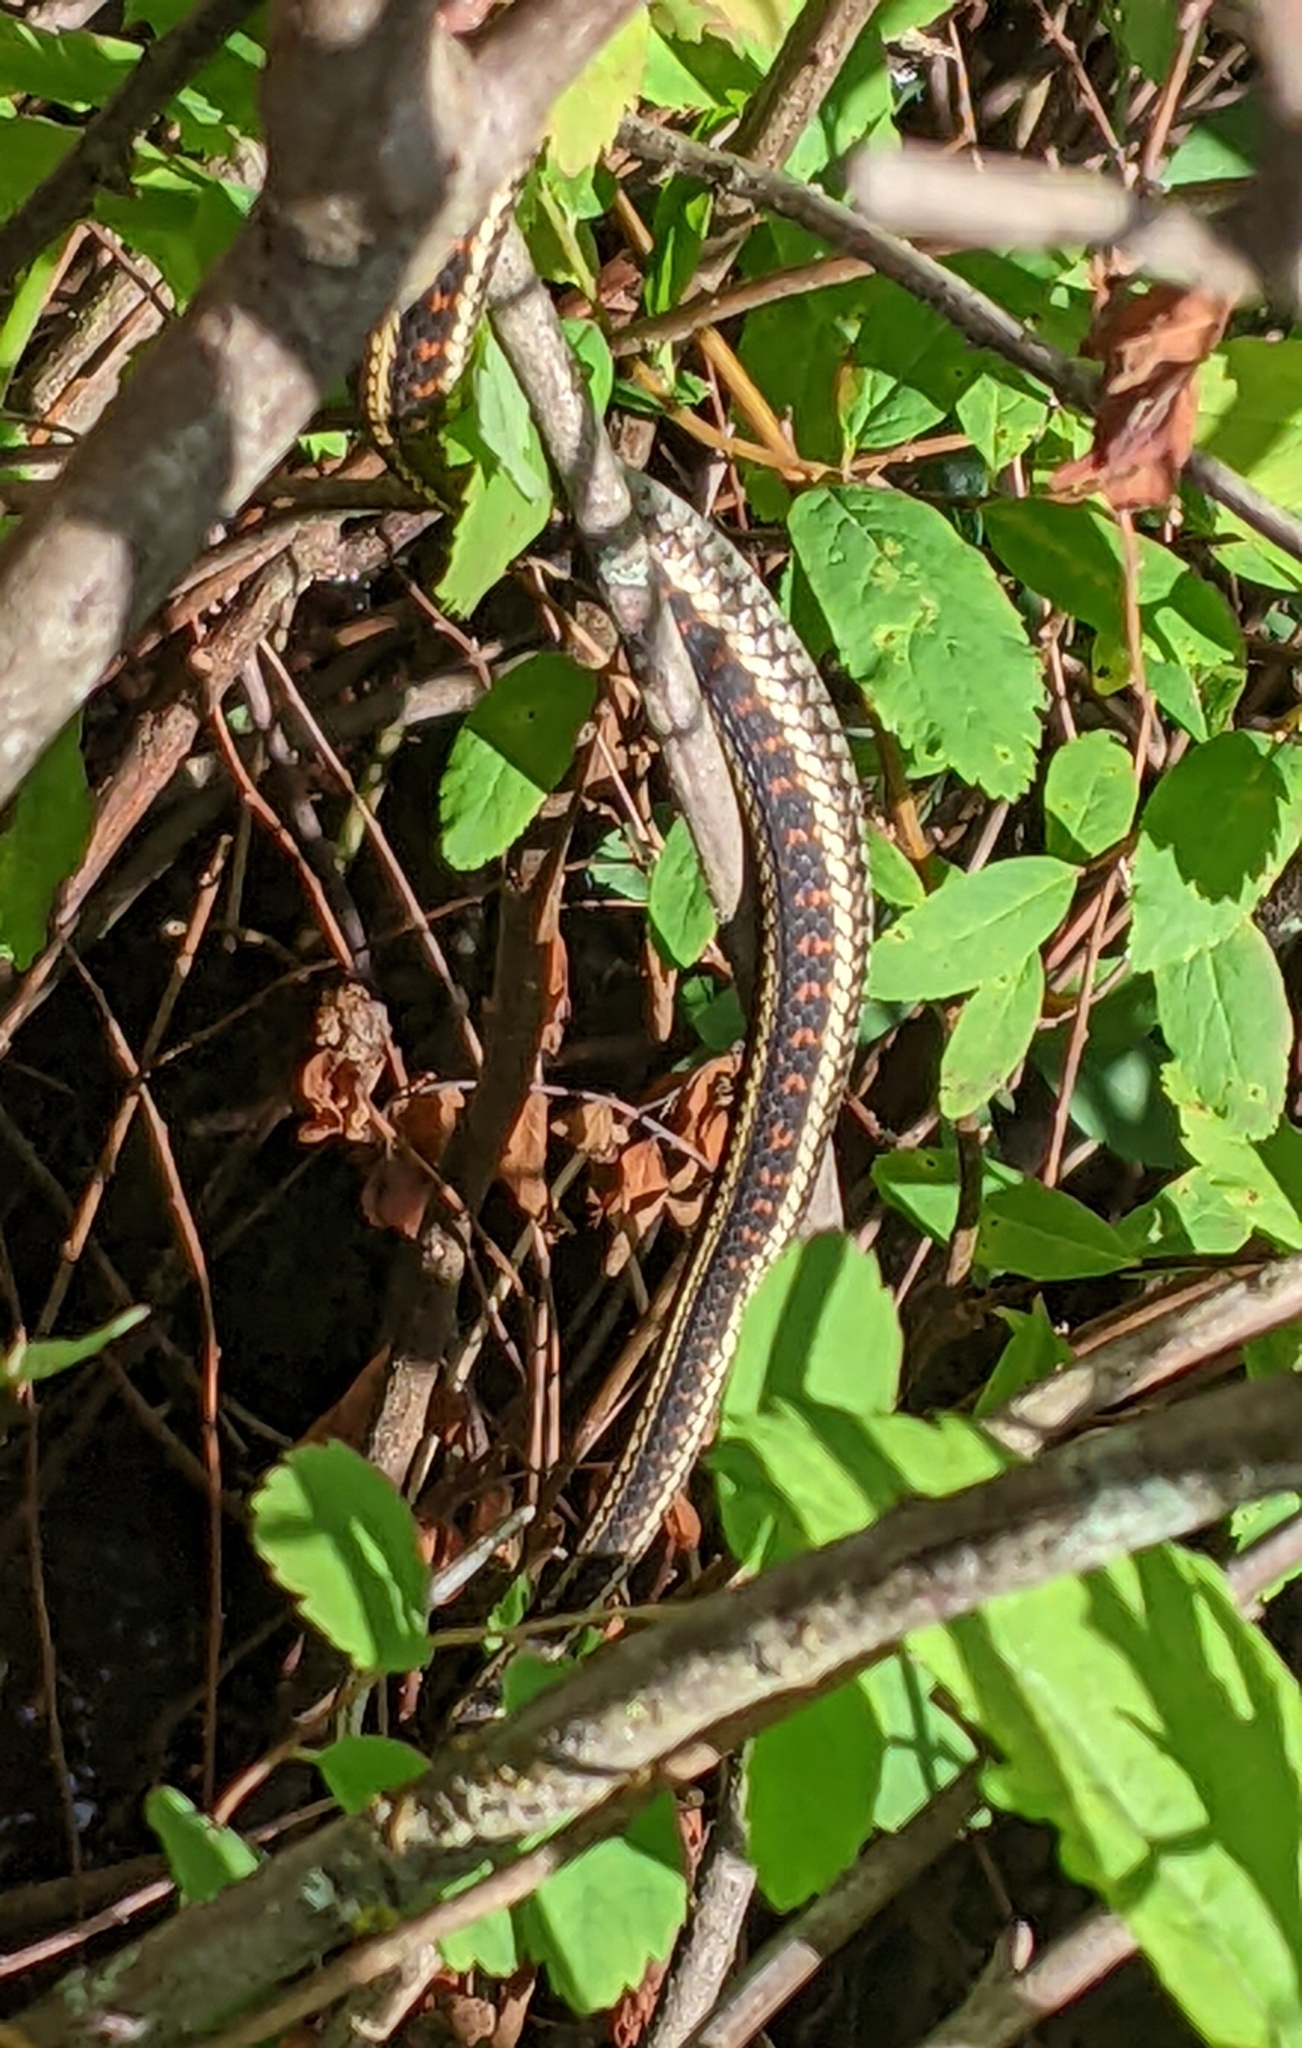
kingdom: Animalia
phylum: Chordata
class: Squamata
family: Colubridae
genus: Thamnophis
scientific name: Thamnophis sirtalis
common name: Common garter snake
